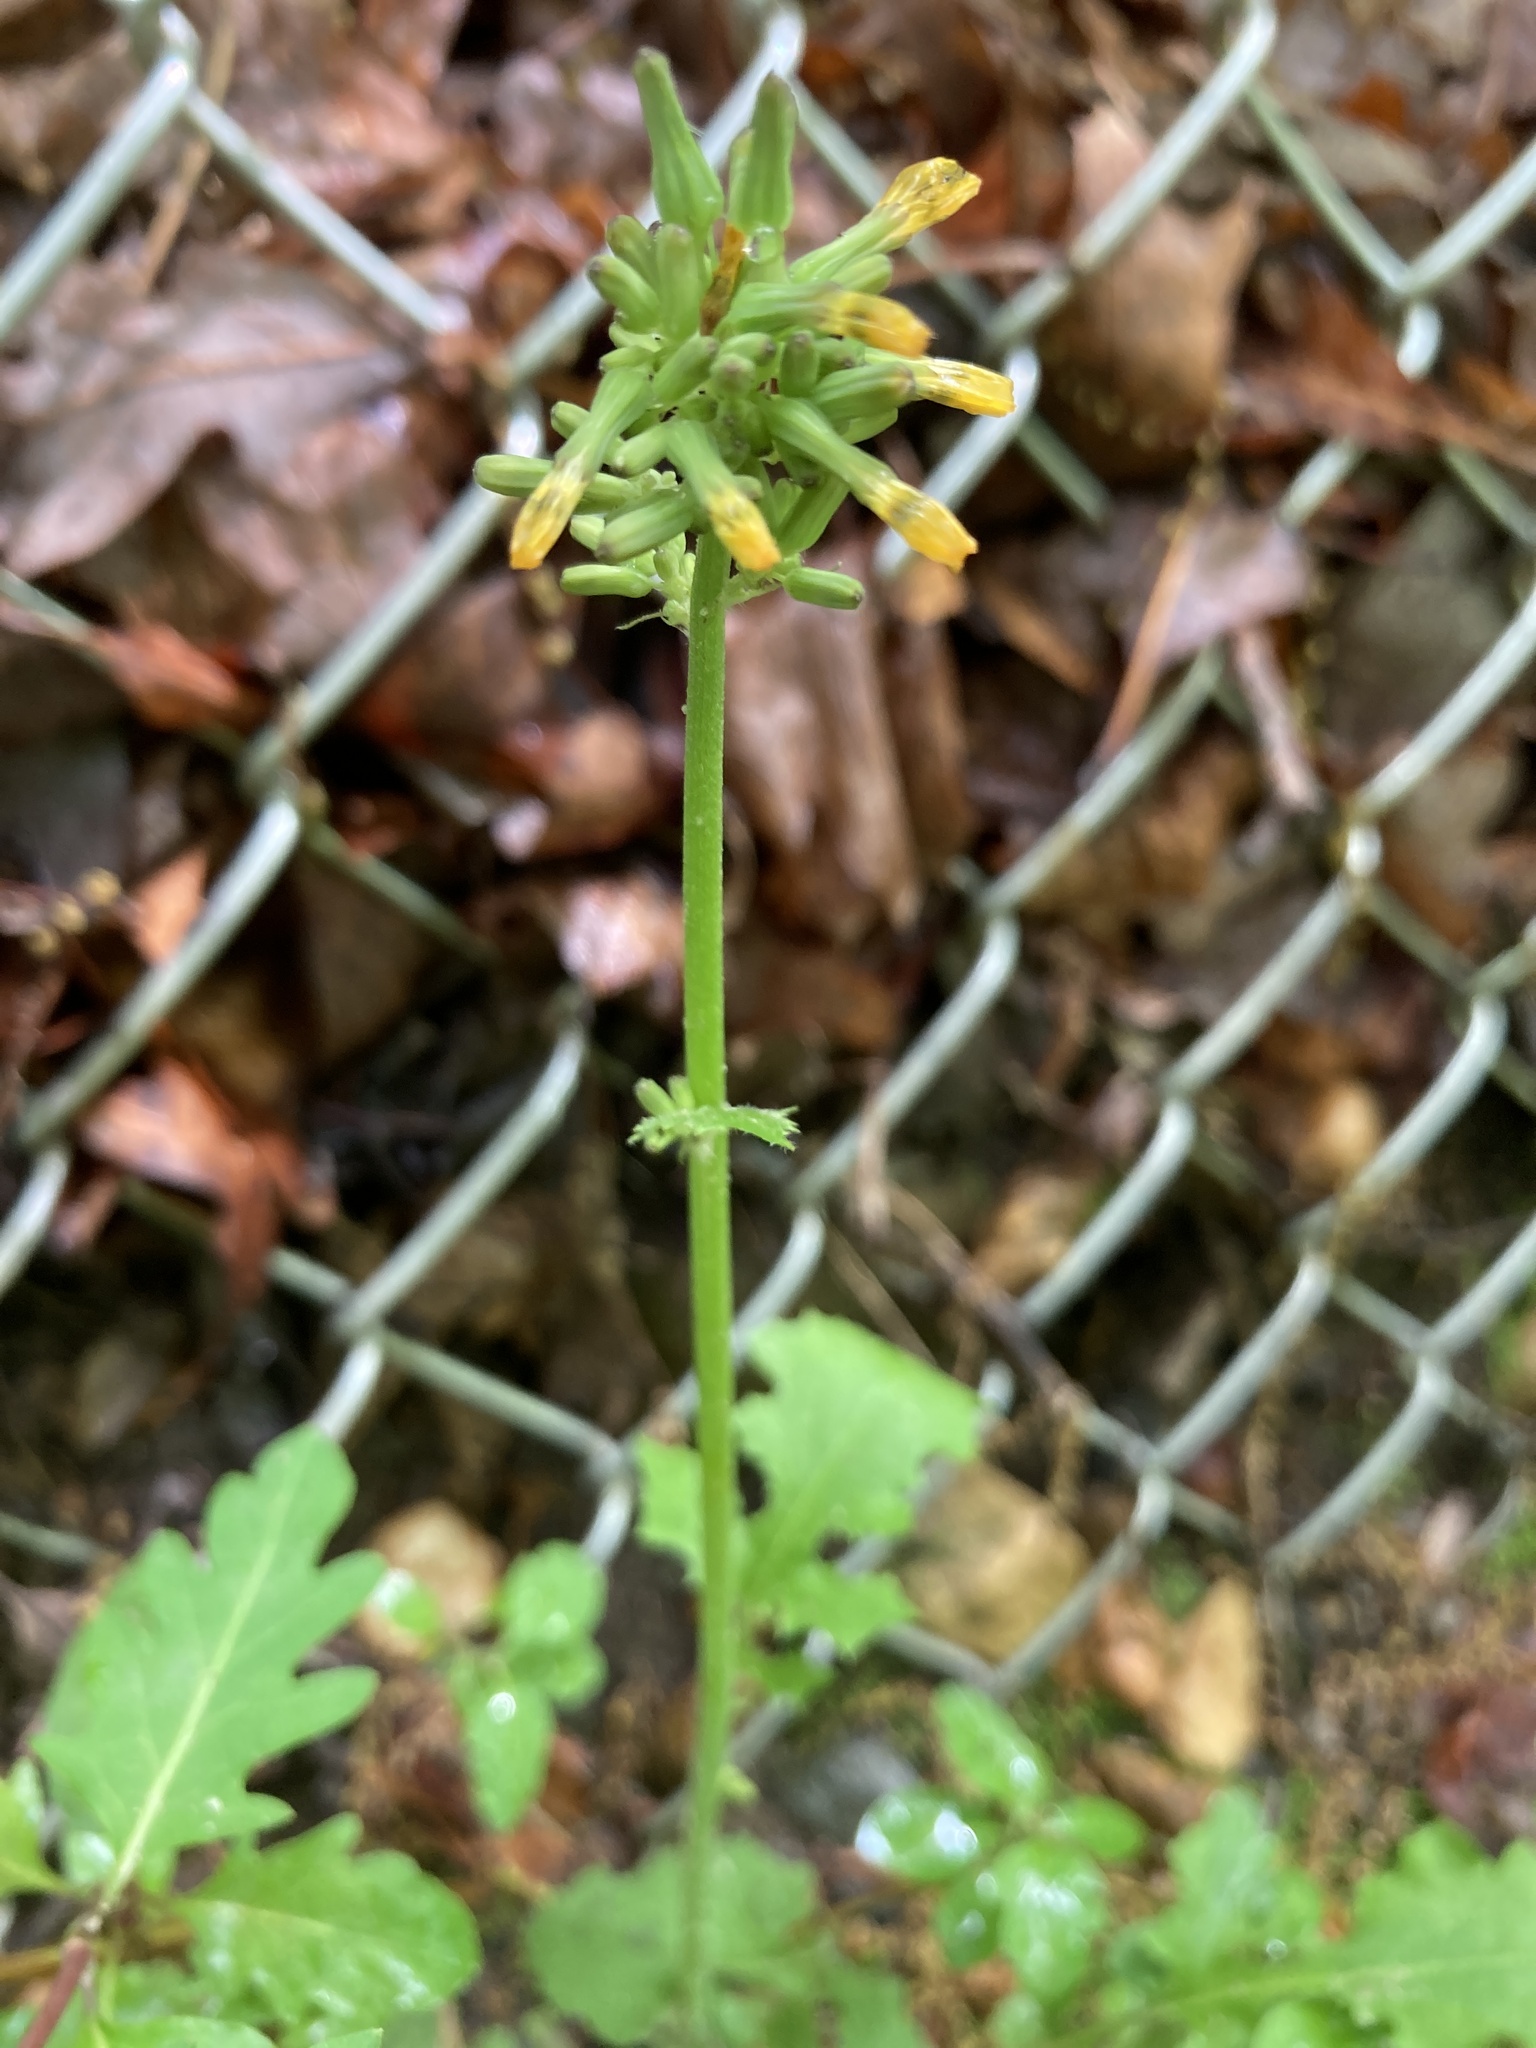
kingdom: Plantae
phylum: Tracheophyta
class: Magnoliopsida
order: Asterales
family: Asteraceae
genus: Youngia
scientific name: Youngia japonica
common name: Oriental false hawksbeard
